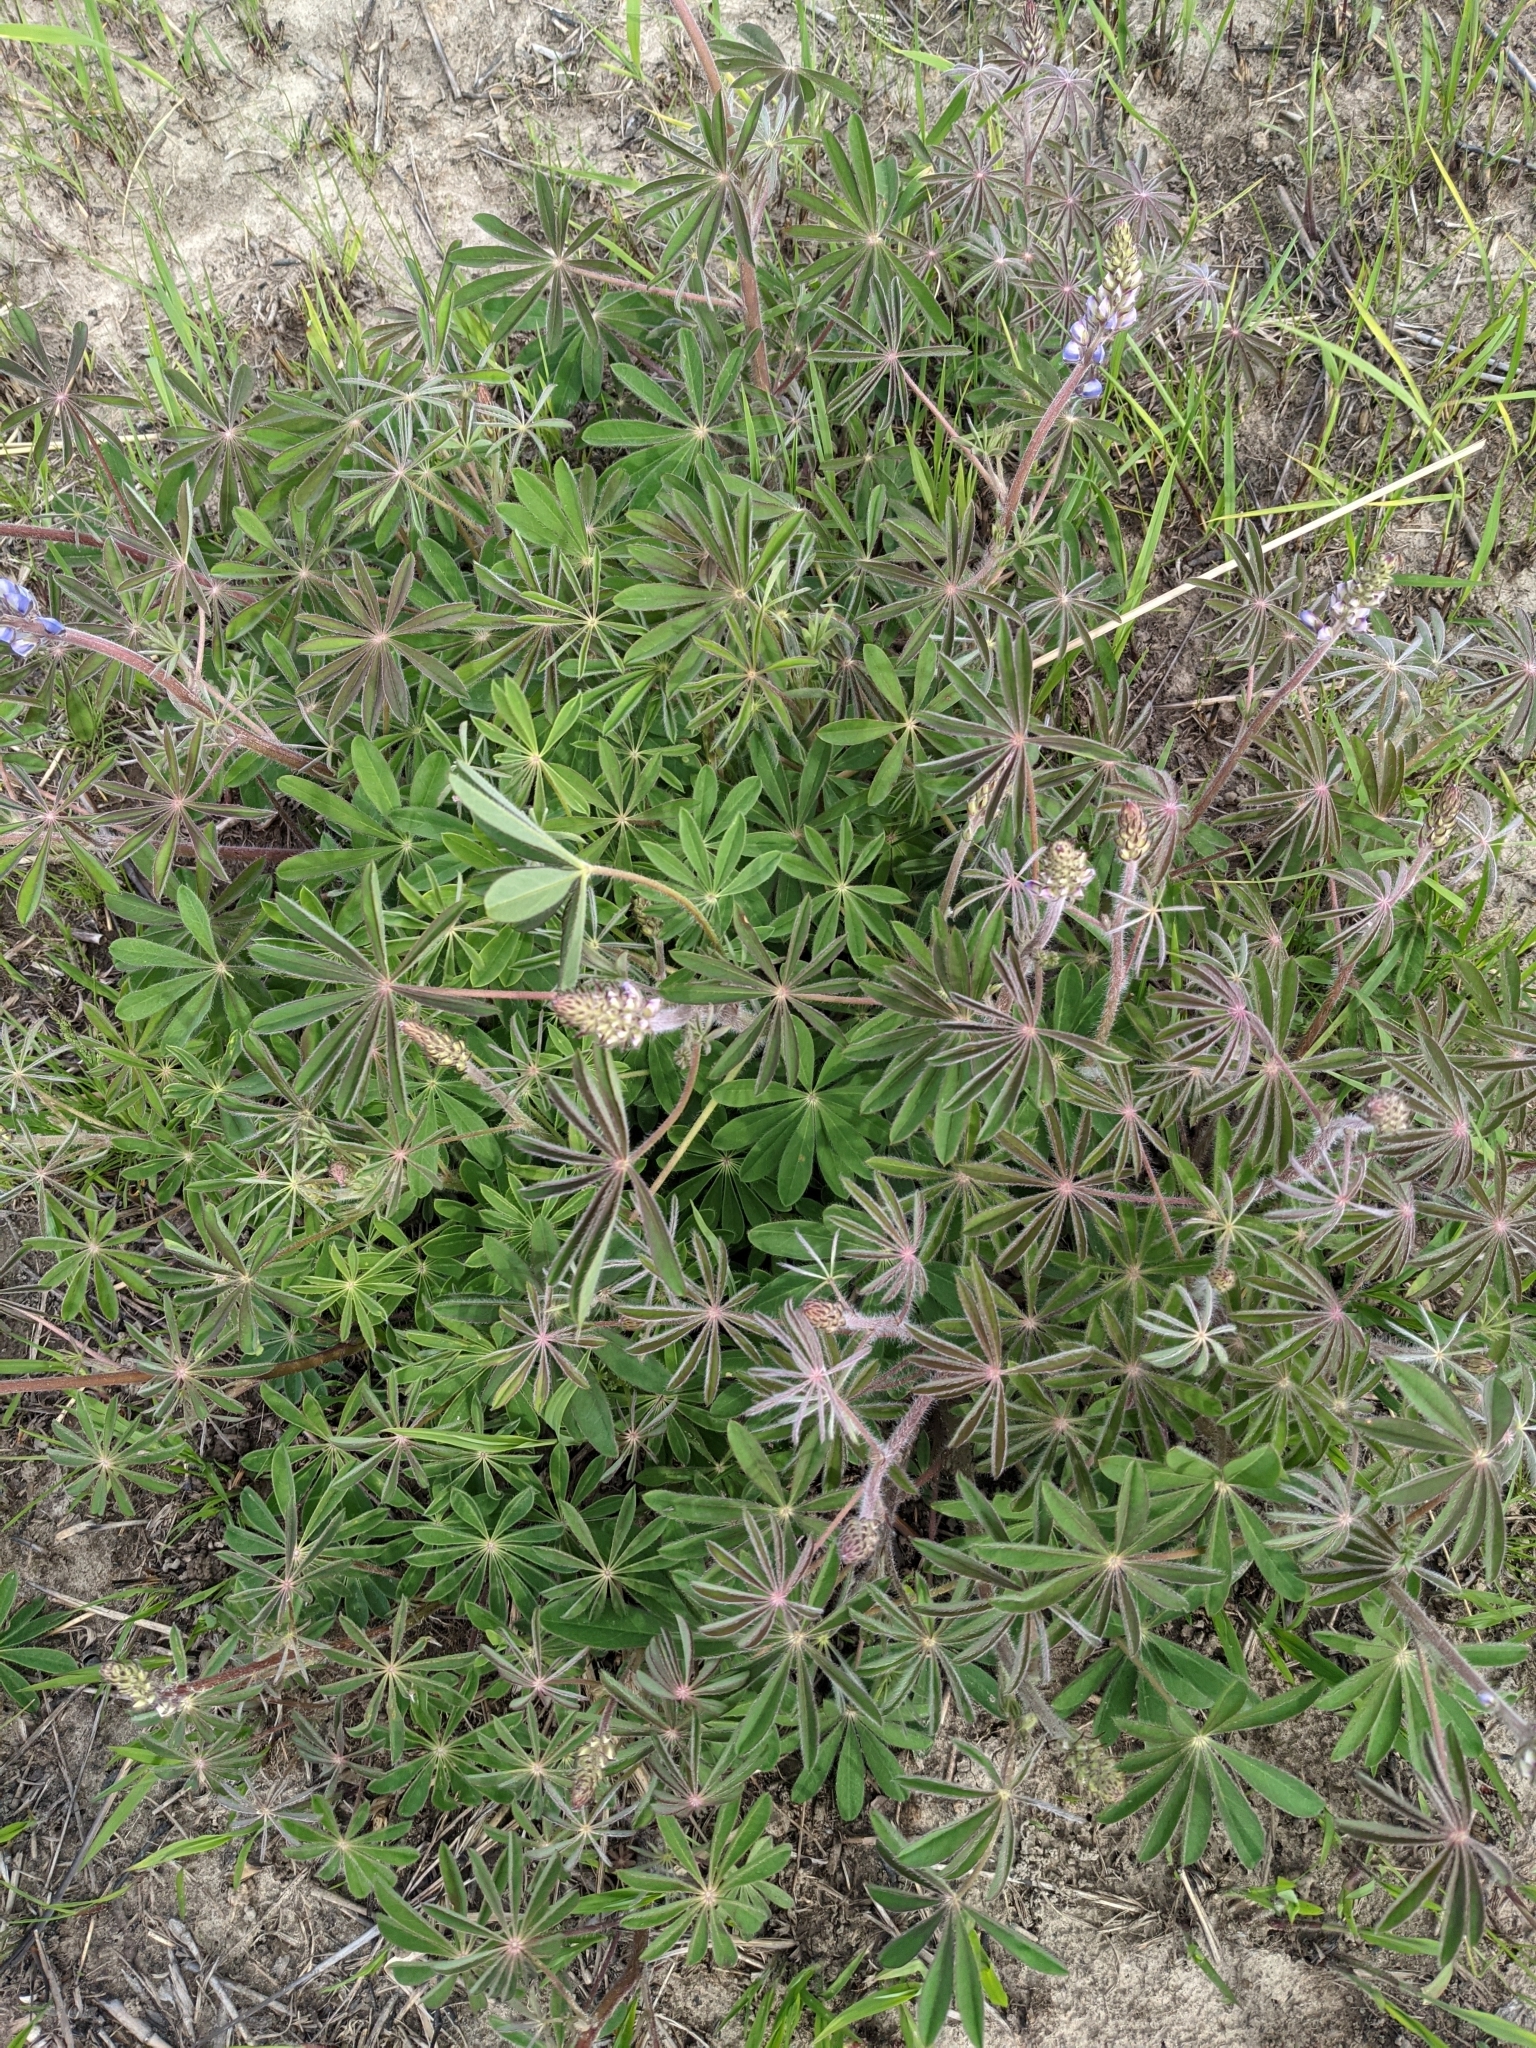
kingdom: Plantae
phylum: Tracheophyta
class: Magnoliopsida
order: Fabales
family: Fabaceae
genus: Lupinus
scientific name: Lupinus perennis
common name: Sundial lupine
